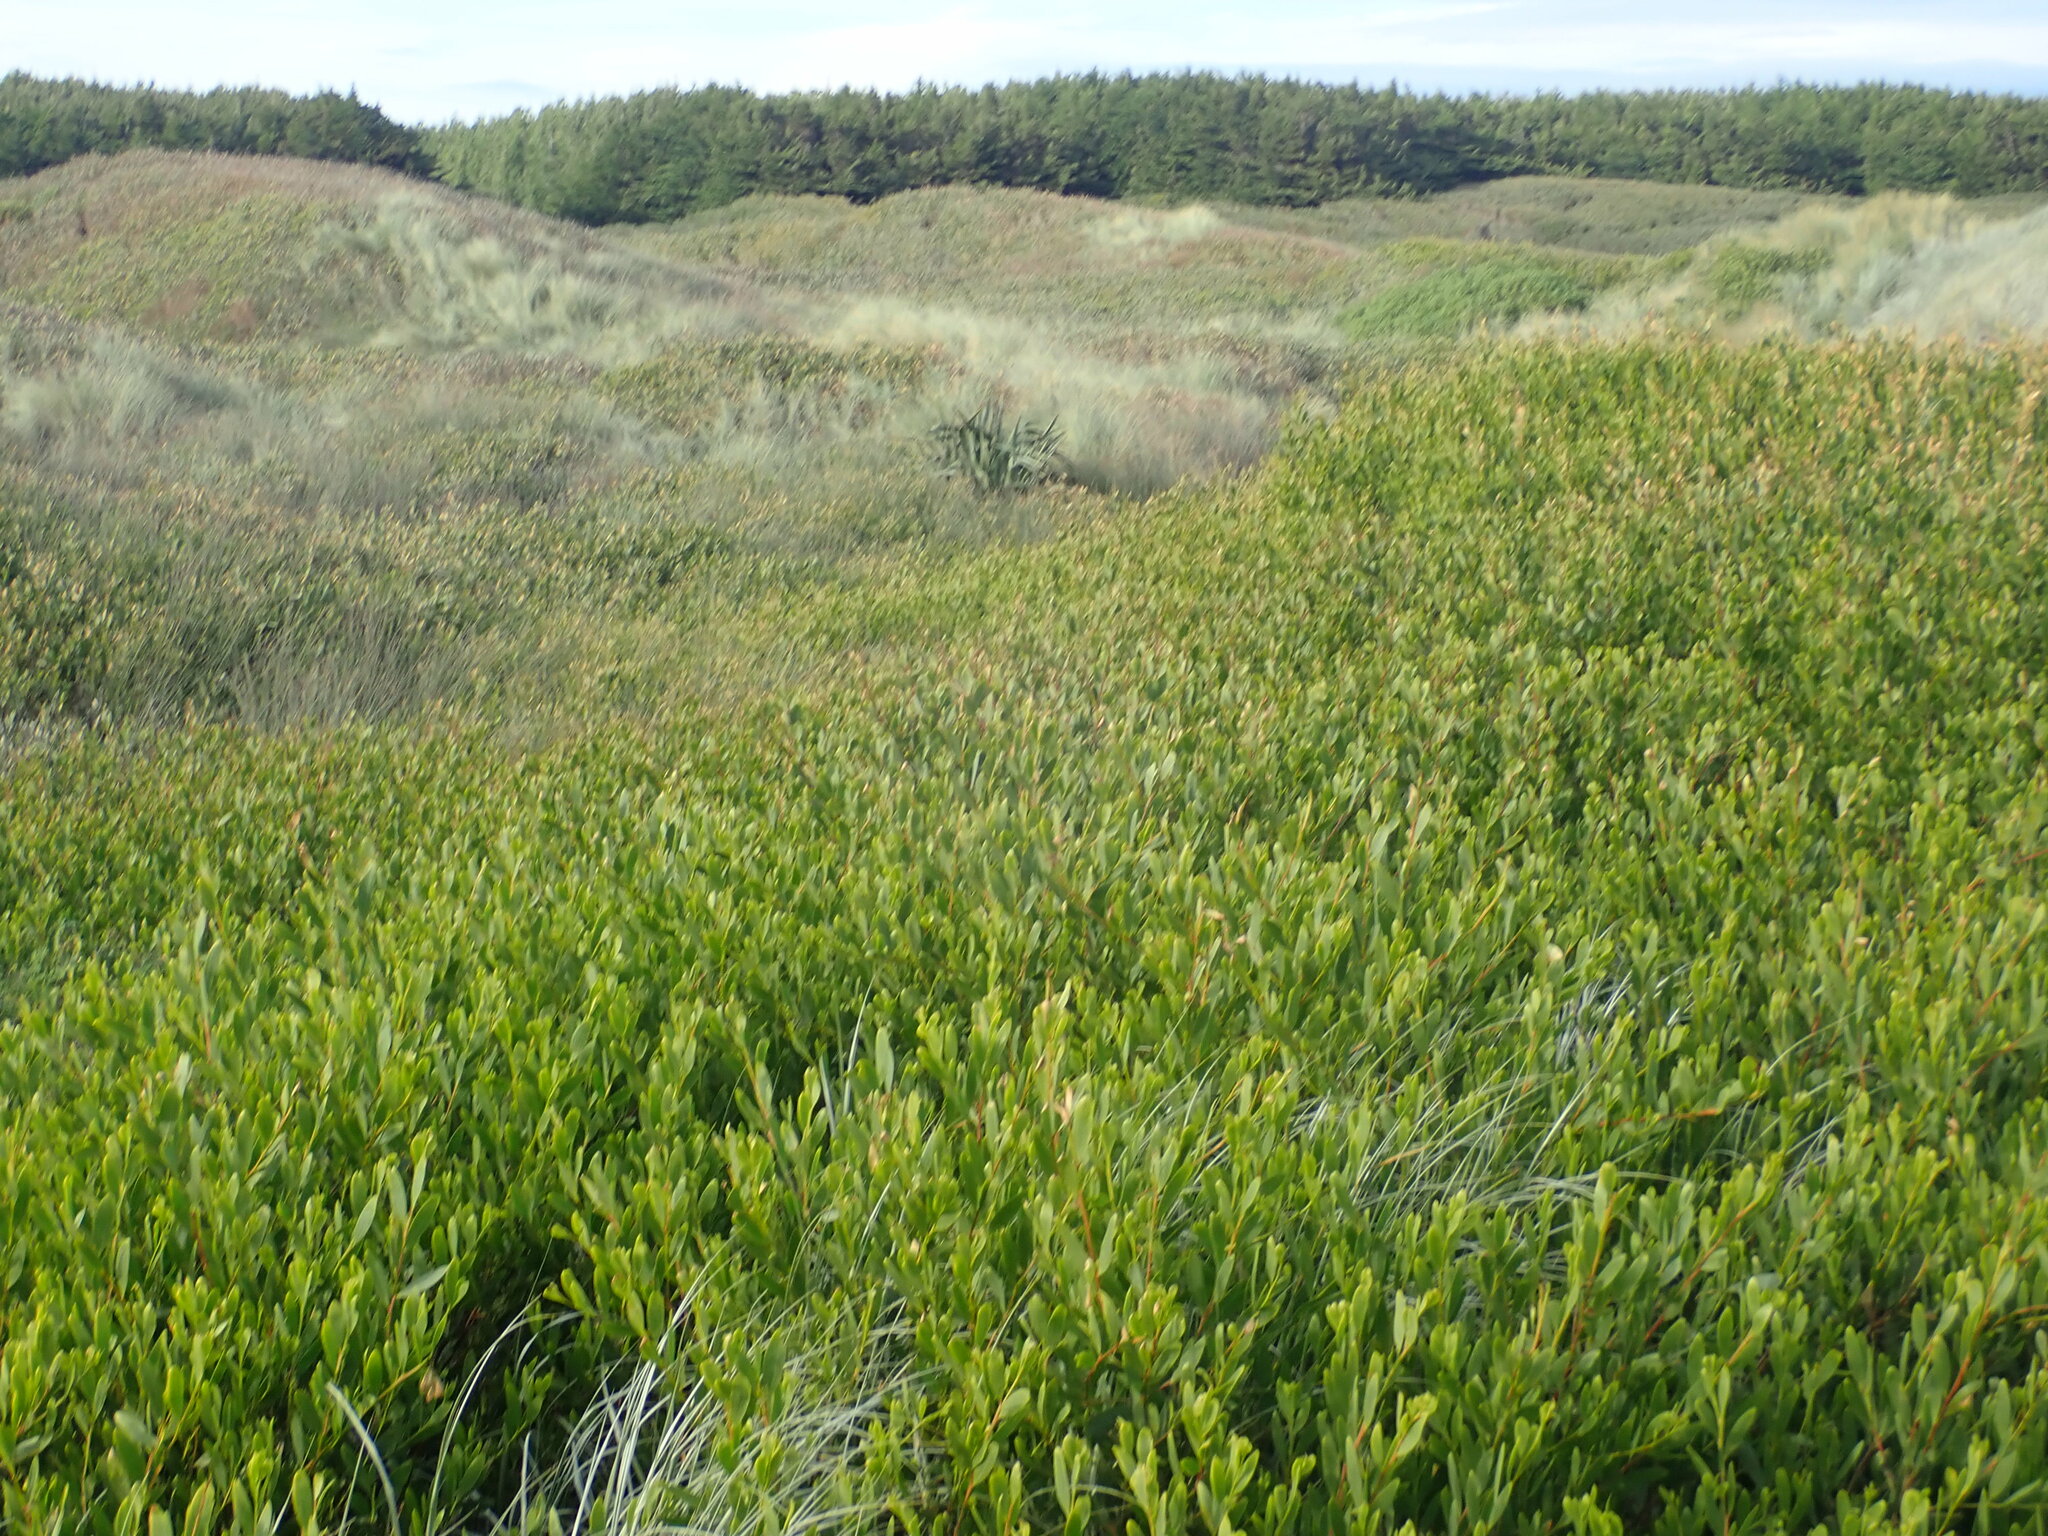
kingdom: Plantae
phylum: Tracheophyta
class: Magnoliopsida
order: Fabales
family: Fabaceae
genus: Acacia
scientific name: Acacia longifolia
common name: Sydney golden wattle
